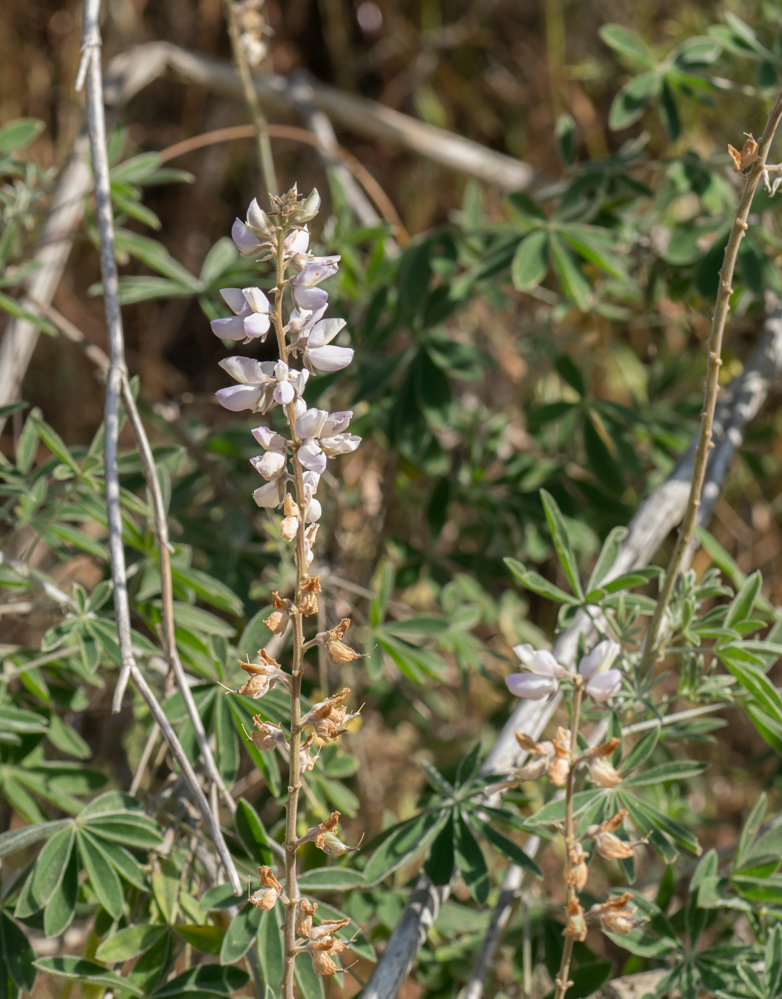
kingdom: Plantae
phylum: Tracheophyta
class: Magnoliopsida
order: Fabales
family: Fabaceae
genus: Lupinus
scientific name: Lupinus longifolius
